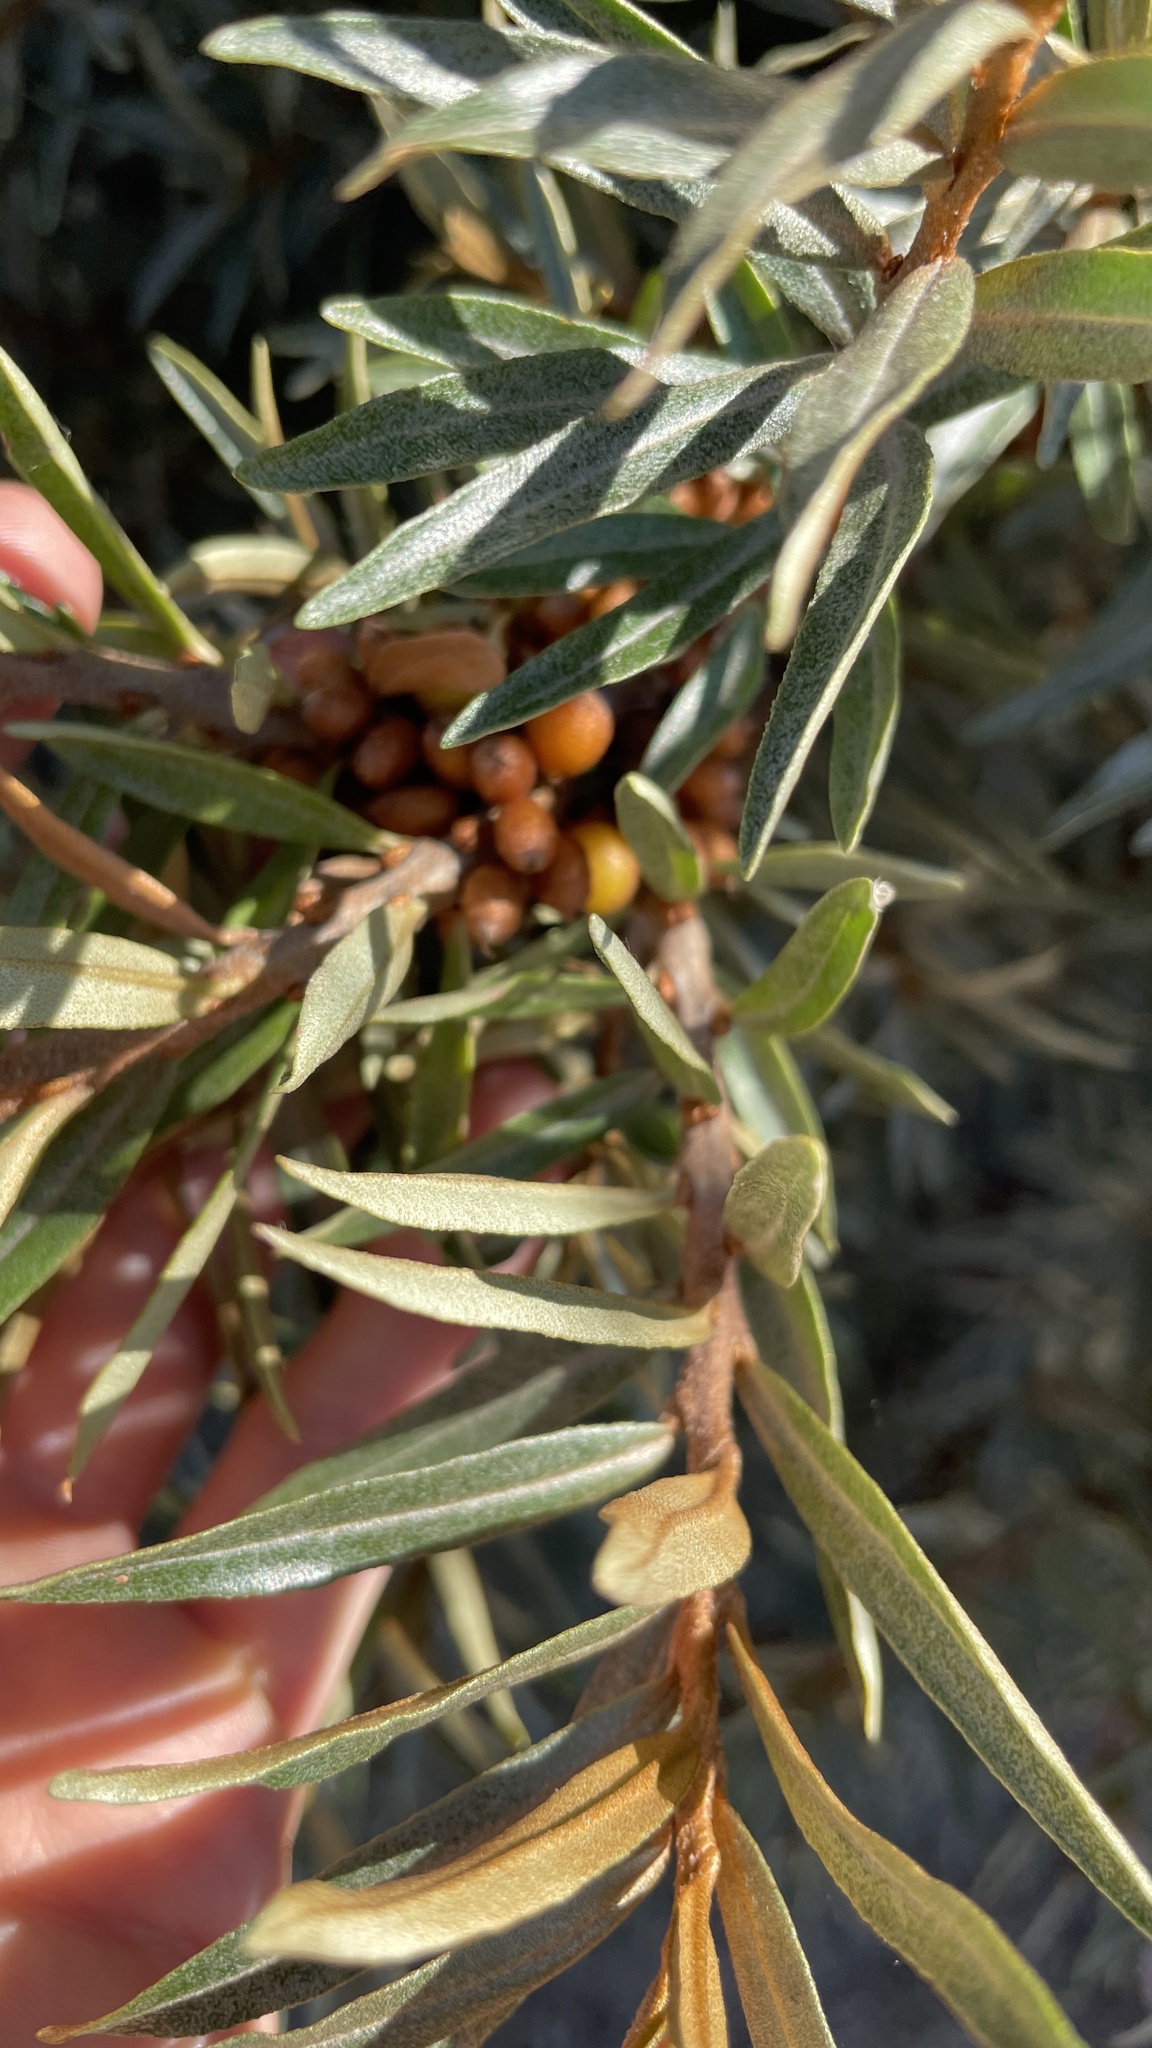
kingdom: Plantae
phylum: Tracheophyta
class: Magnoliopsida
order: Rosales
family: Elaeagnaceae
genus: Hippophae
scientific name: Hippophae rhamnoides
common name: Sea-buckthorn
